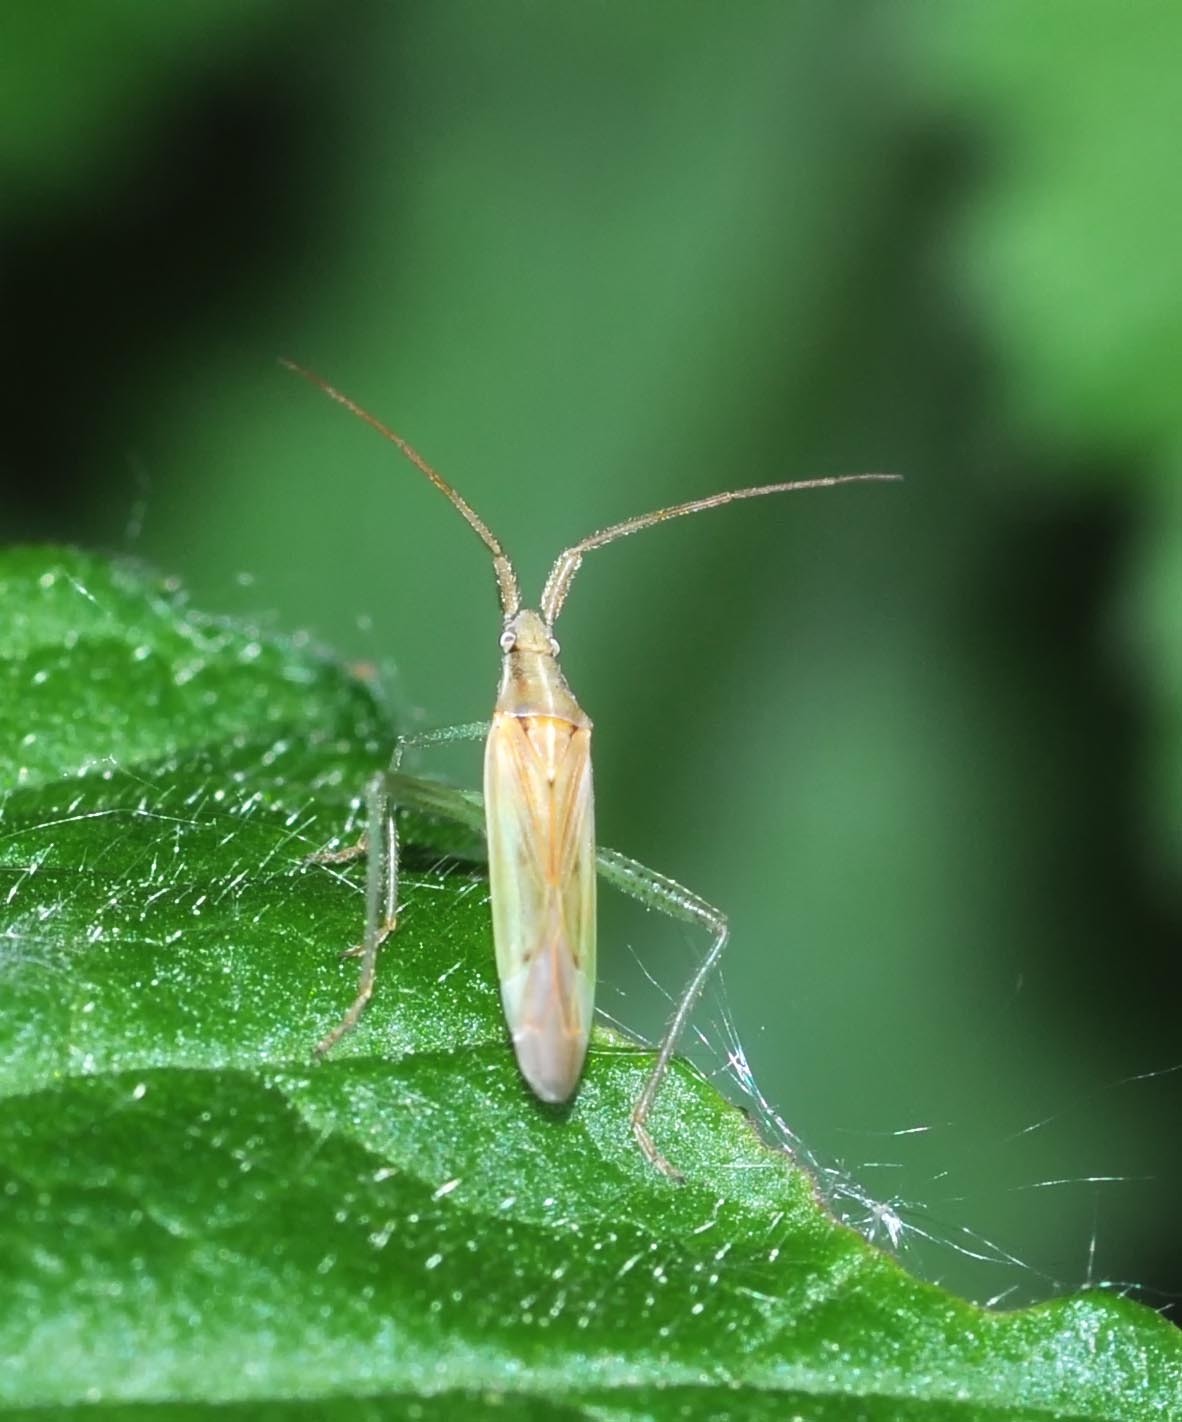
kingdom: Animalia
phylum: Arthropoda
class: Insecta
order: Hemiptera
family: Miridae
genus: Stenodema
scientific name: Stenodema laevigata
